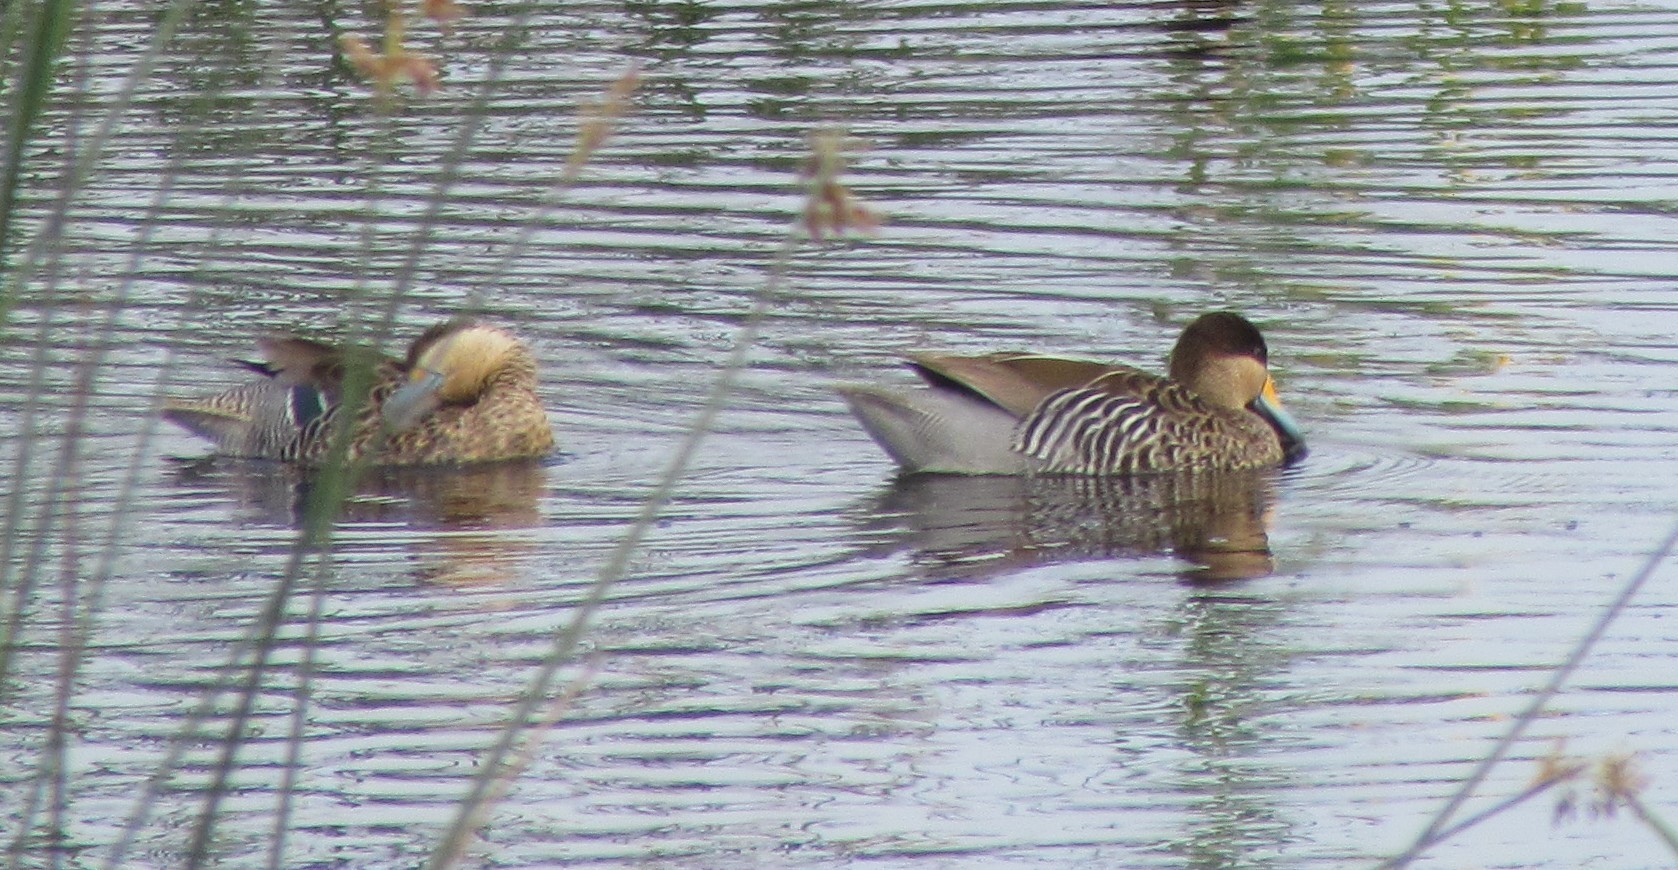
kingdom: Animalia
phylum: Chordata
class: Aves
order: Anseriformes
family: Anatidae
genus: Spatula
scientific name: Spatula versicolor
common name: Silver teal
